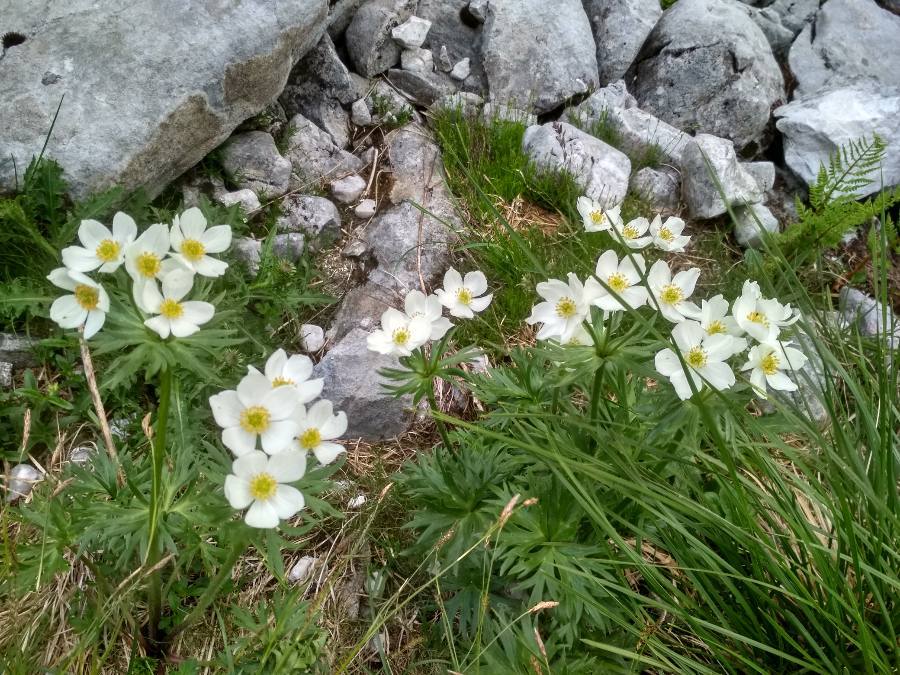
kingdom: Plantae
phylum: Tracheophyta
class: Magnoliopsida
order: Ranunculales
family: Ranunculaceae
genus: Anemonastrum
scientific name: Anemonastrum narcissiflorum
